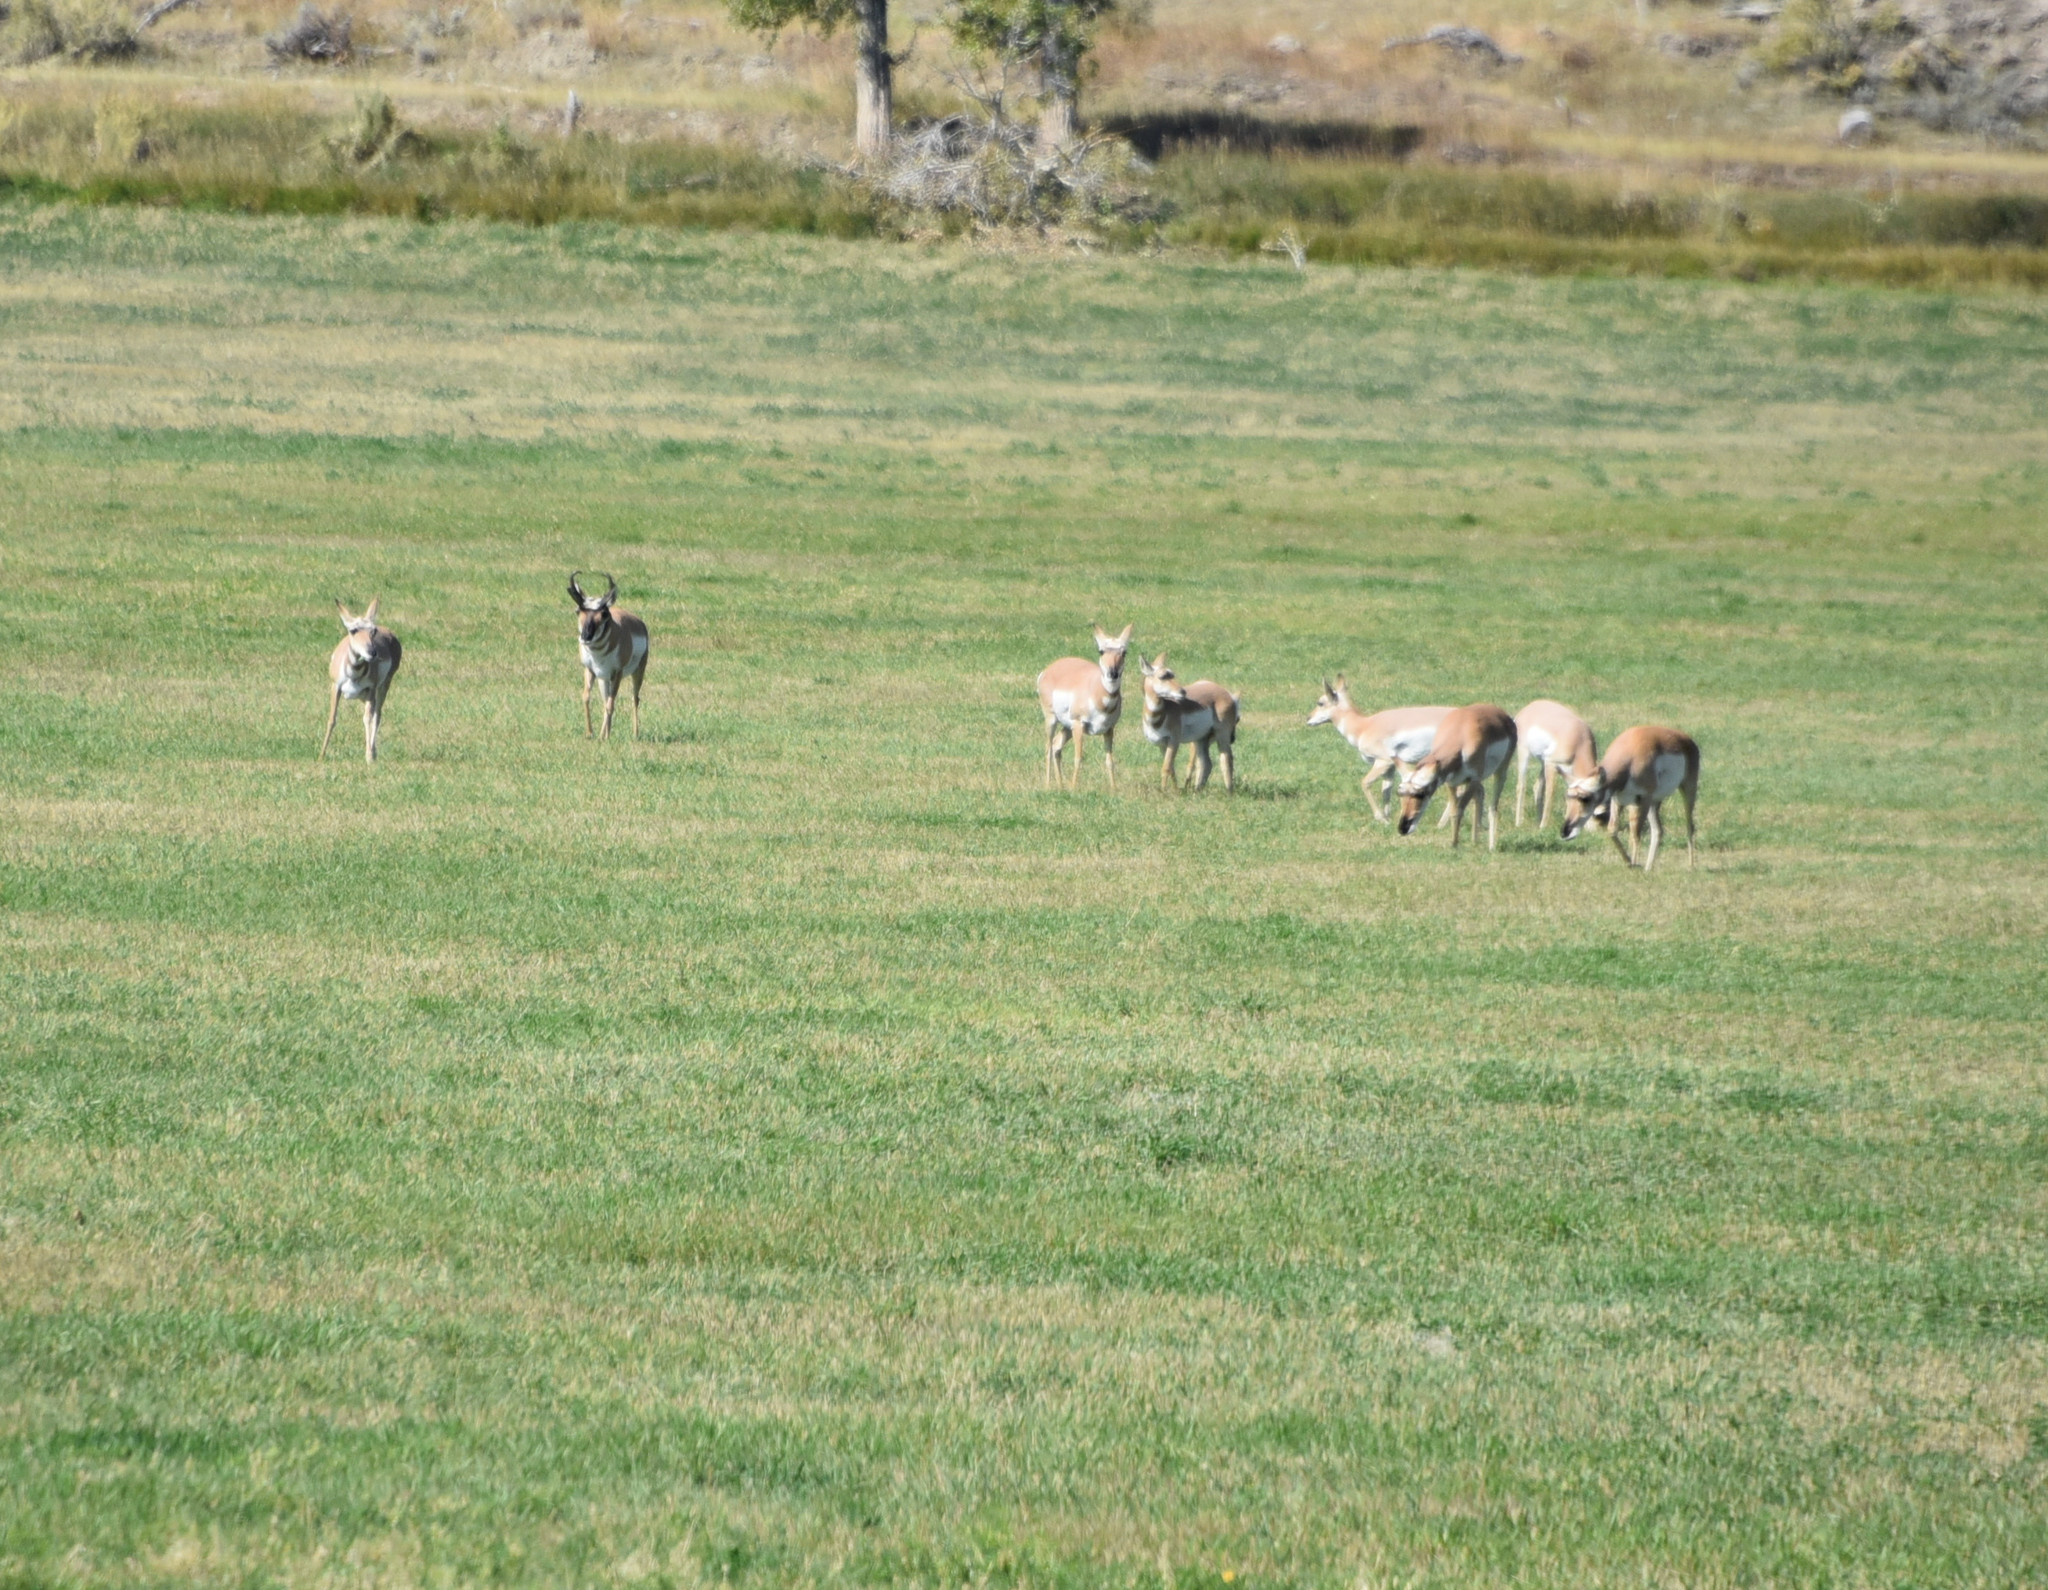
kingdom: Animalia
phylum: Chordata
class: Mammalia
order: Artiodactyla
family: Antilocapridae
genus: Antilocapra
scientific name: Antilocapra americana
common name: Pronghorn
